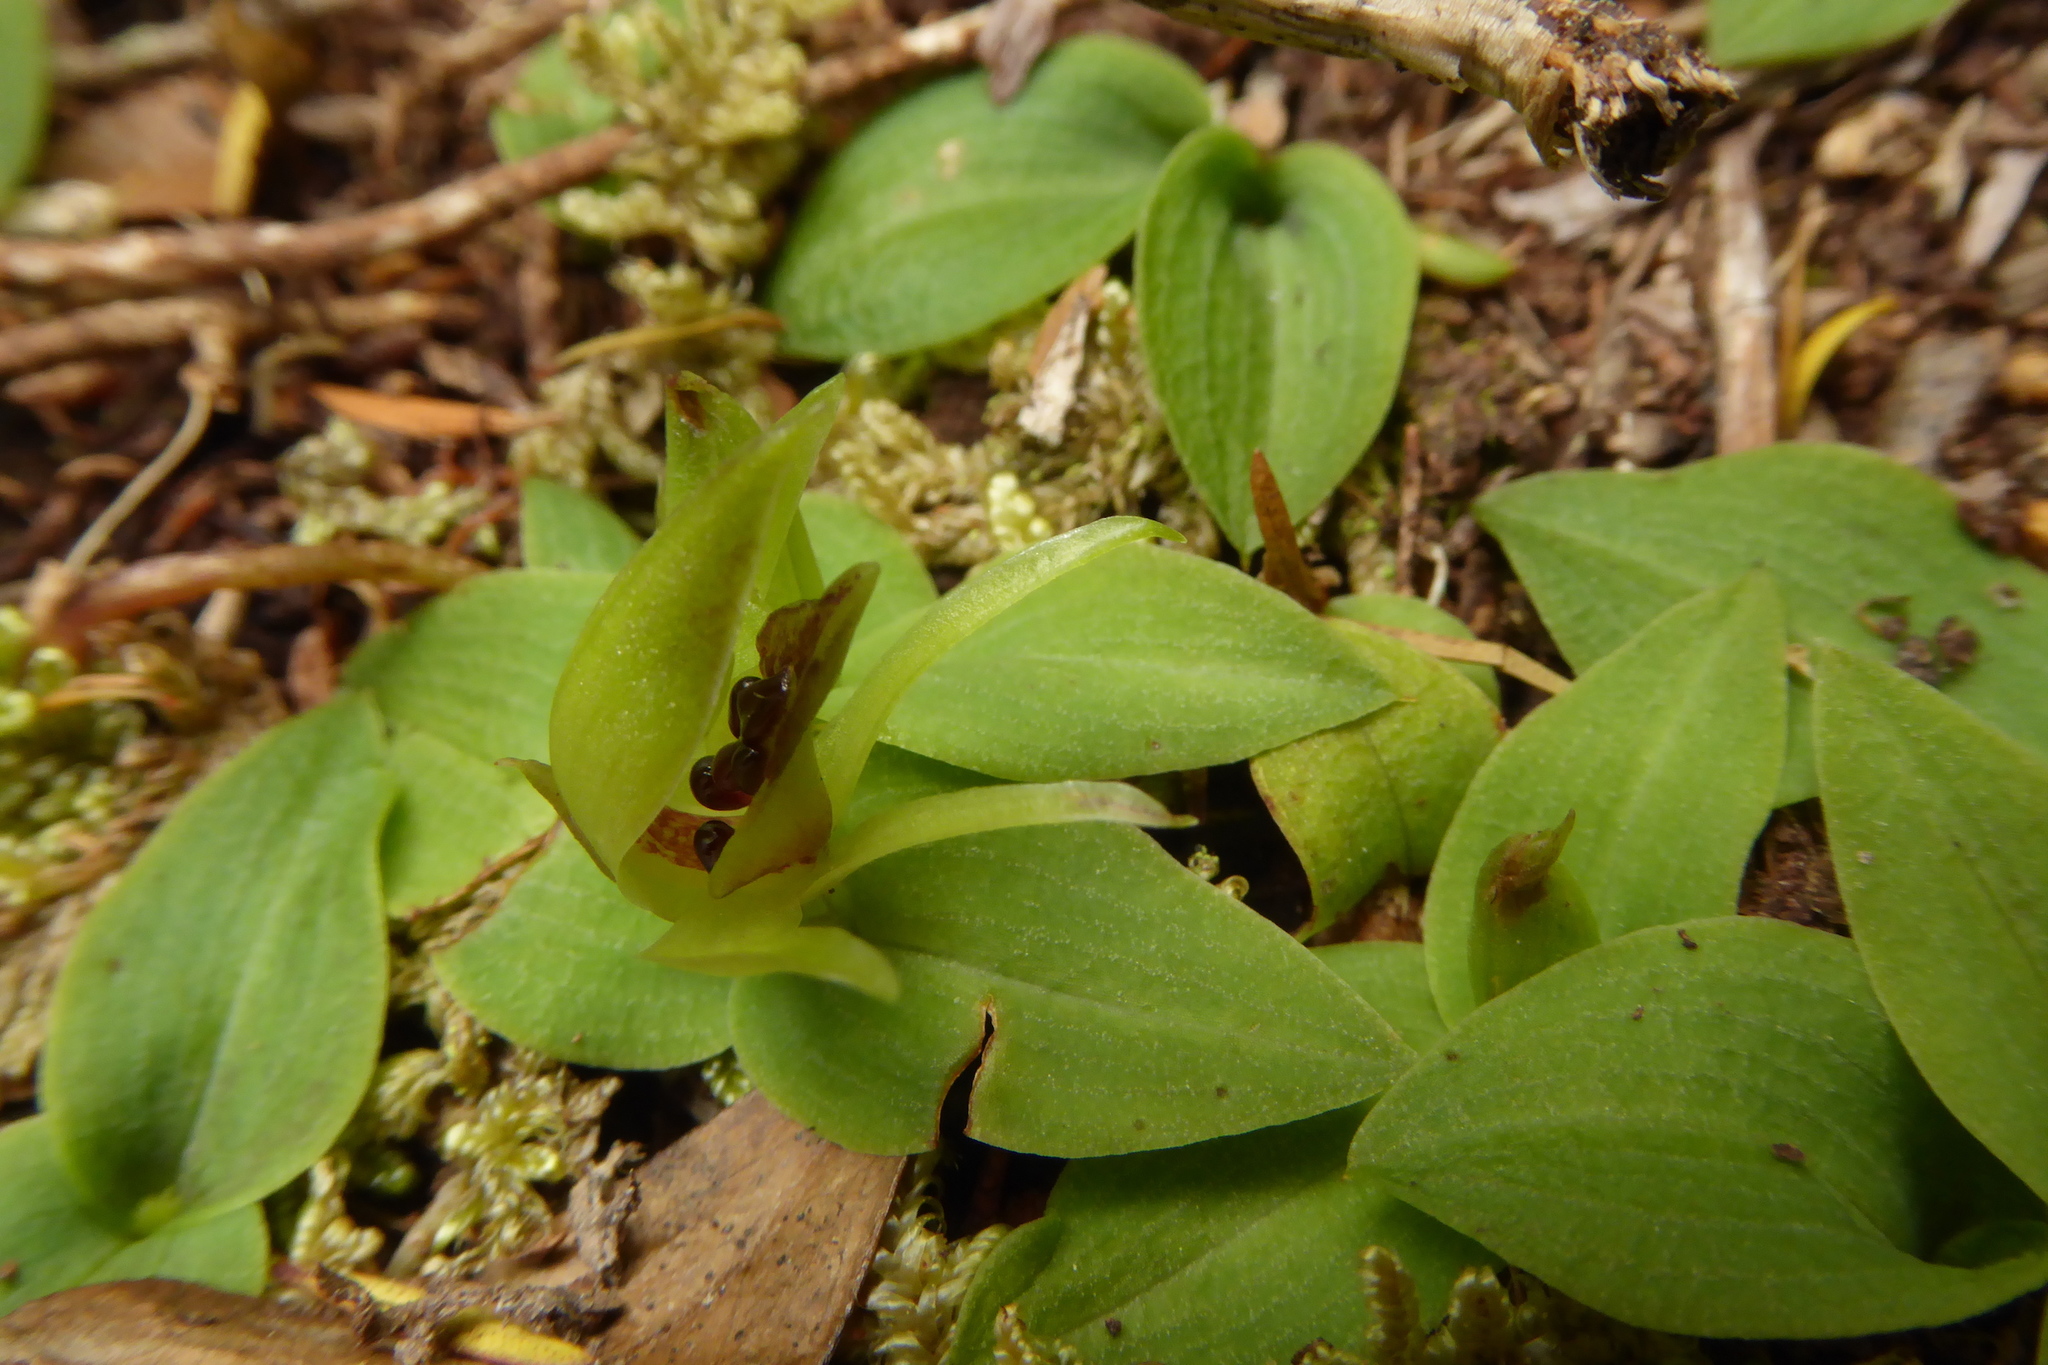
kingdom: Plantae
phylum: Tracheophyta
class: Liliopsida
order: Asparagales
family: Orchidaceae
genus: Chiloglottis
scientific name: Chiloglottis cornuta
